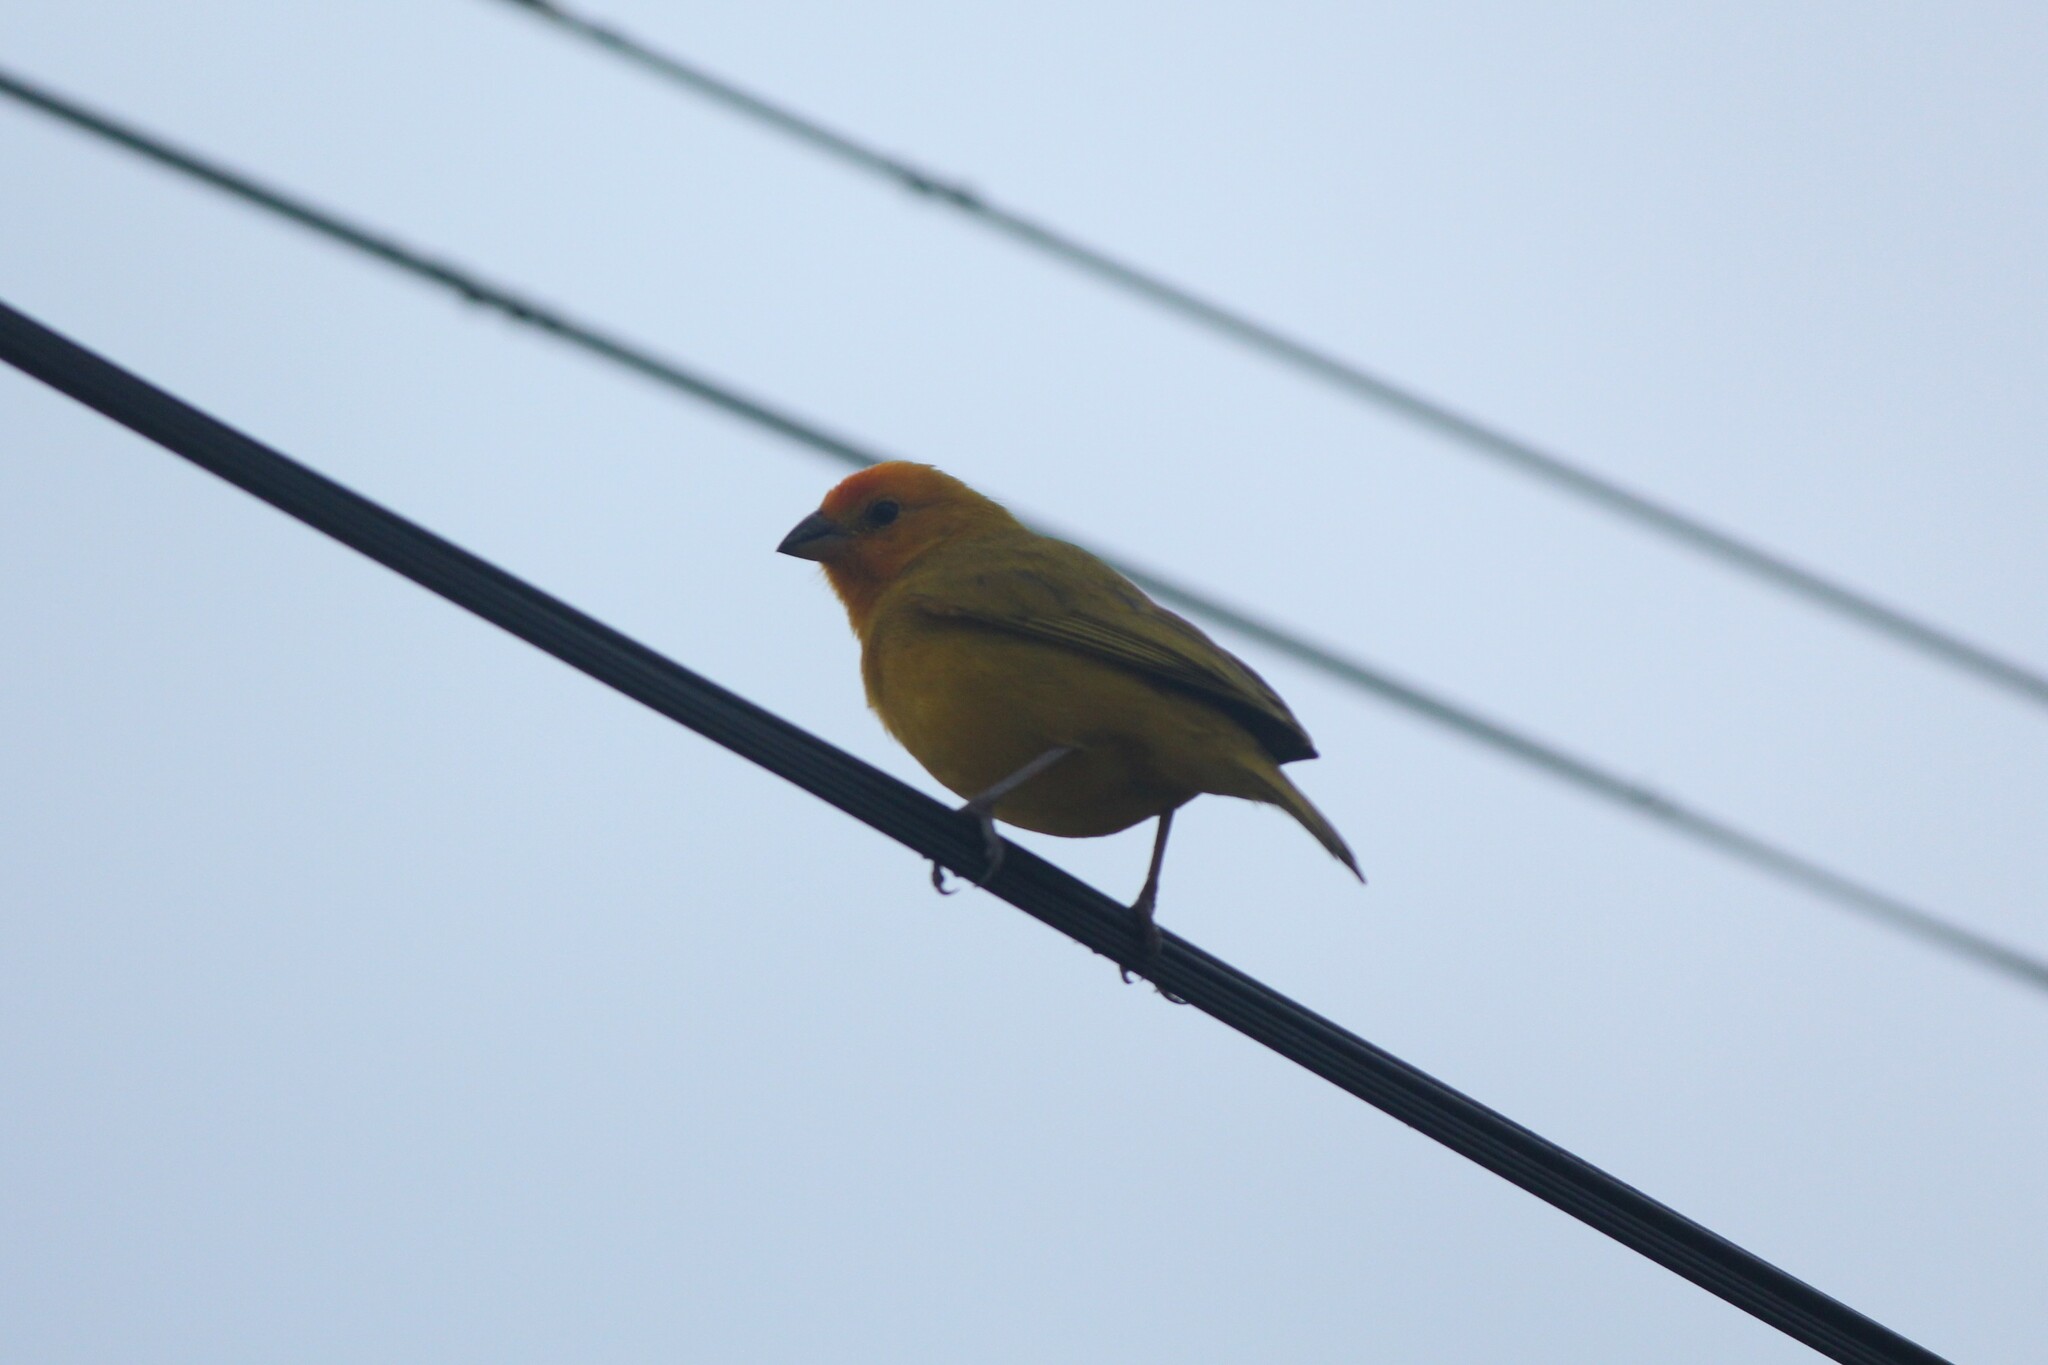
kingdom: Animalia
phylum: Chordata
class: Aves
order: Passeriformes
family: Thraupidae
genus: Sicalis
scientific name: Sicalis flaveola
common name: Saffron finch
